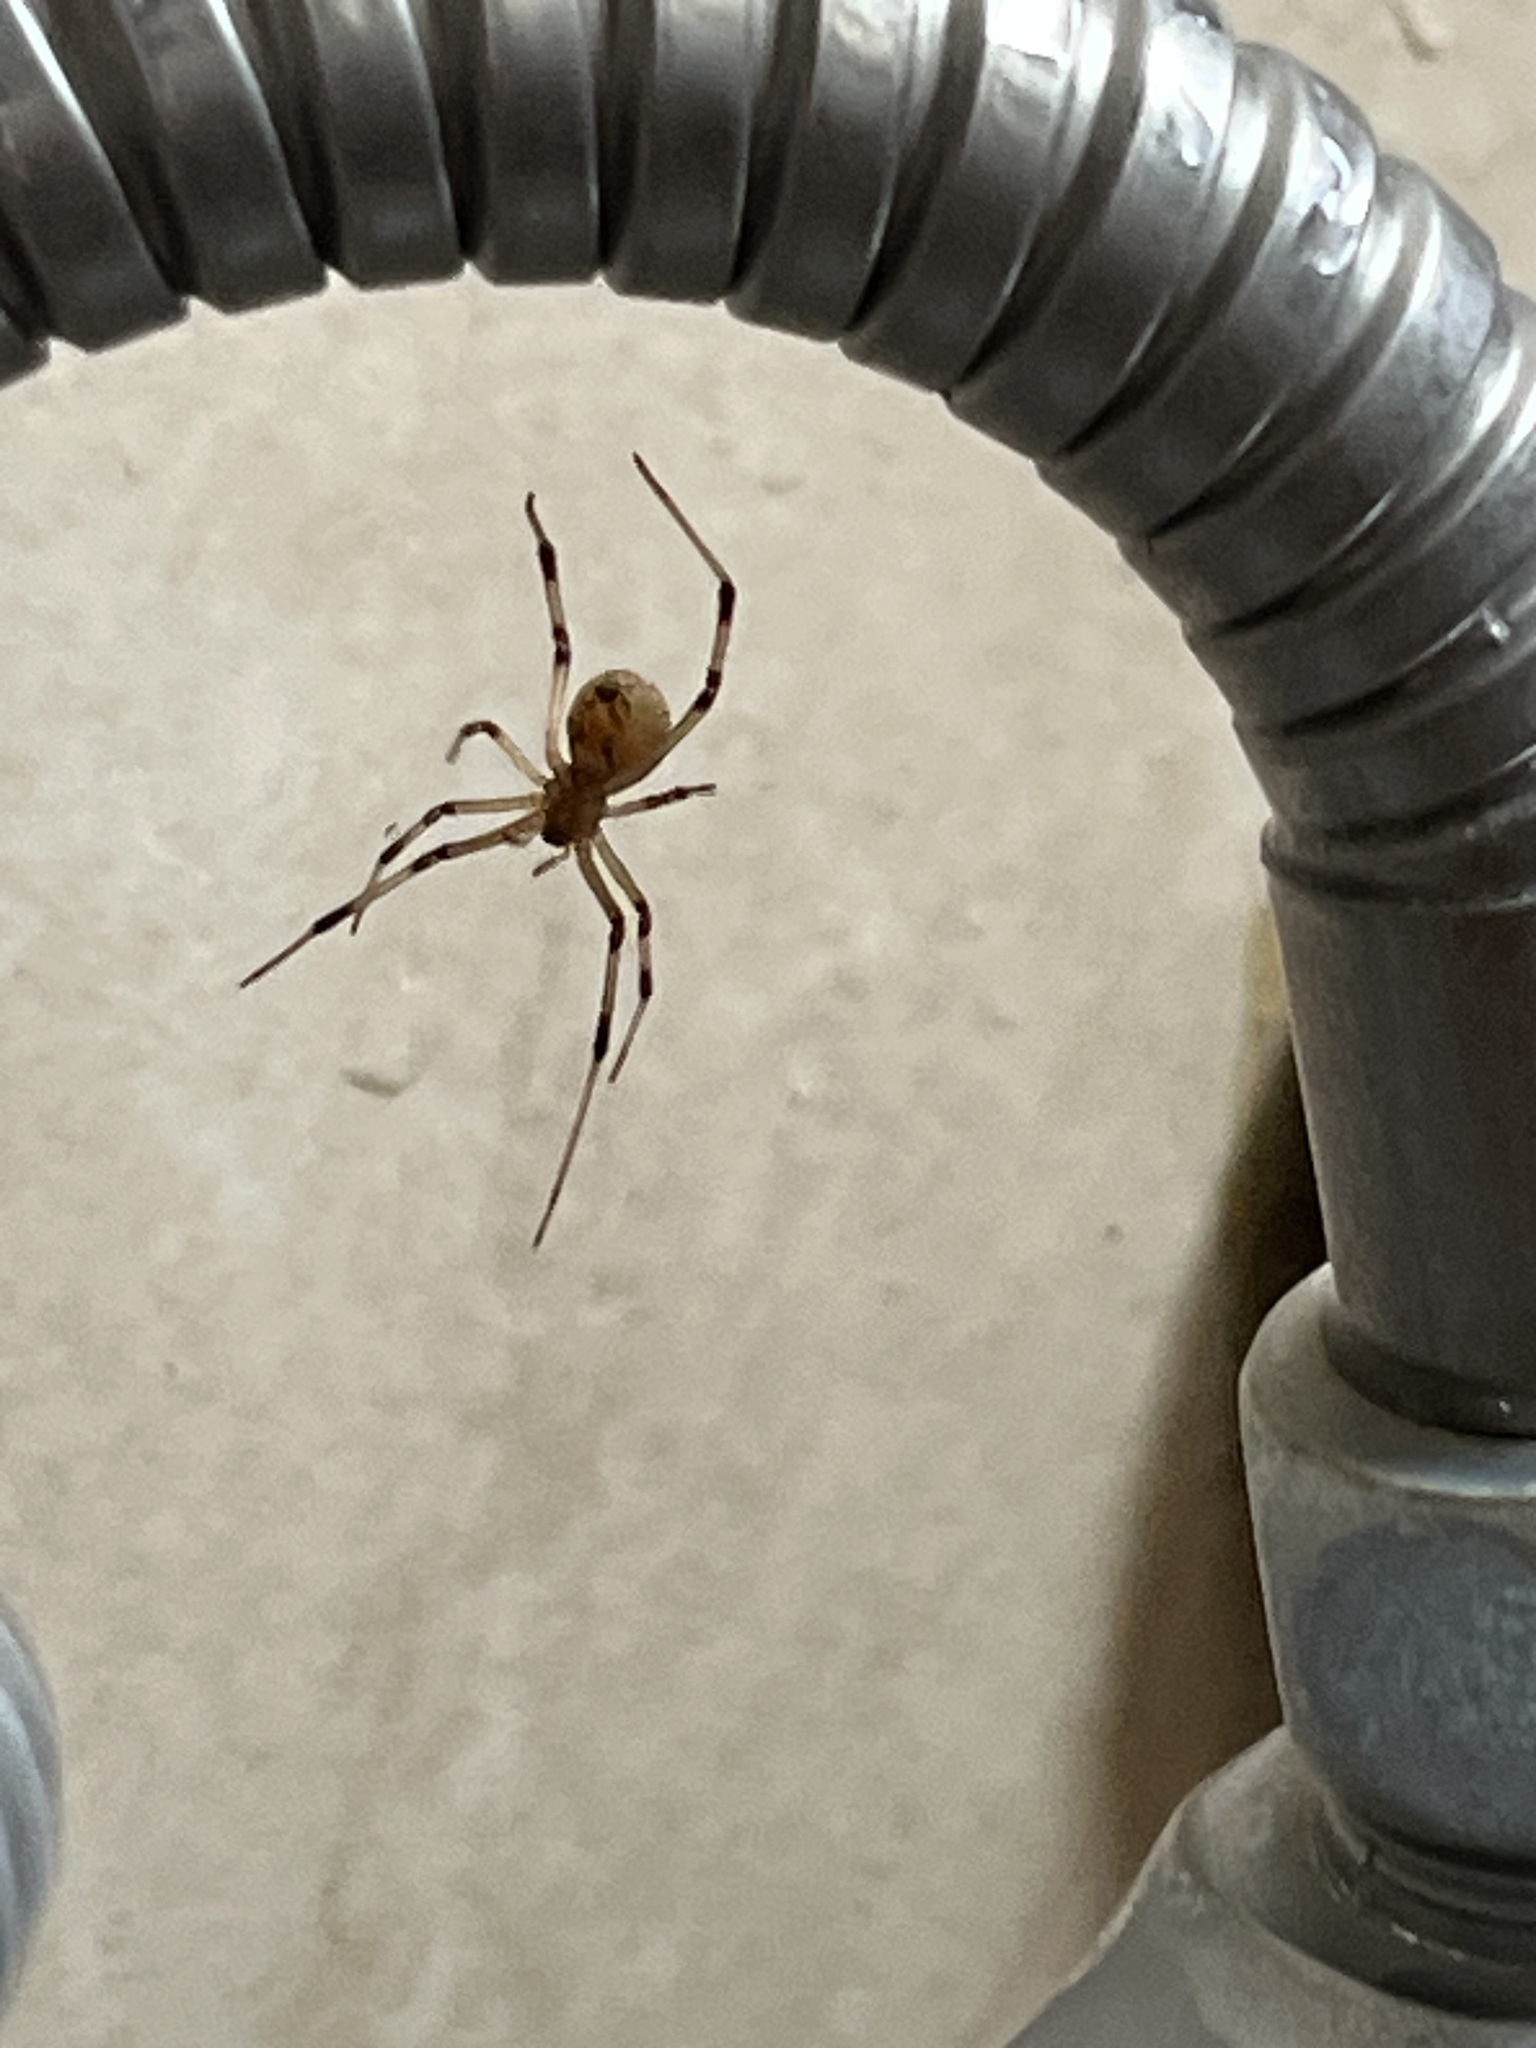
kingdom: Animalia
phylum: Arthropoda
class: Arachnida
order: Araneae
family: Theridiidae
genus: Latrodectus
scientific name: Latrodectus geometricus
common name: Brown widow spider
